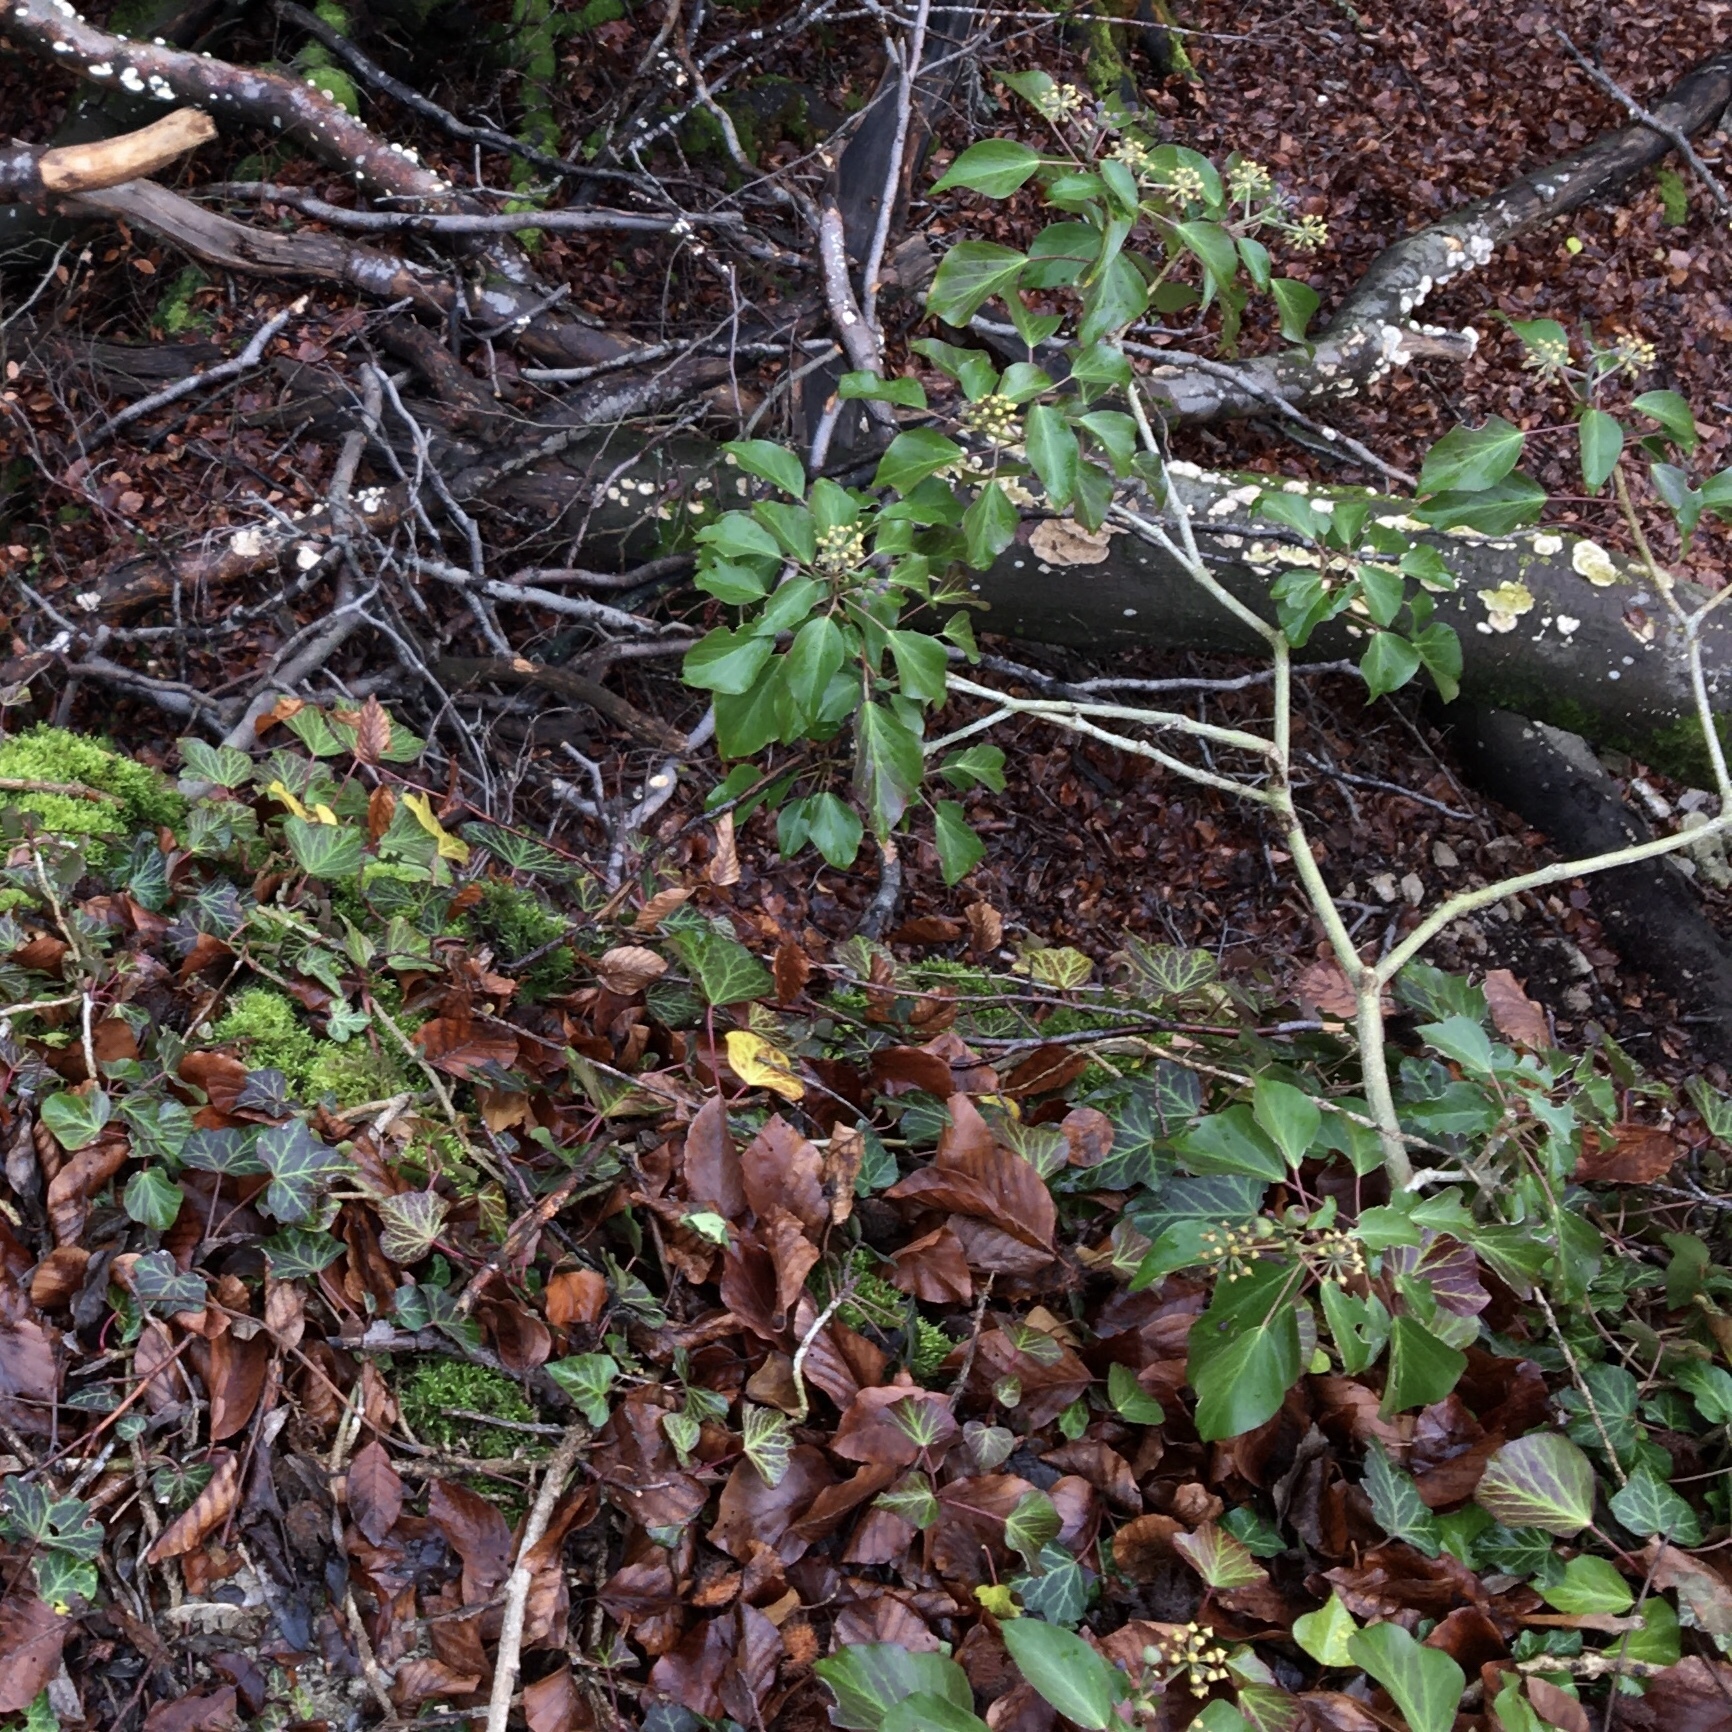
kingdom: Plantae
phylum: Tracheophyta
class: Magnoliopsida
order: Apiales
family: Araliaceae
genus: Hedera
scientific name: Hedera helix
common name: Ivy
